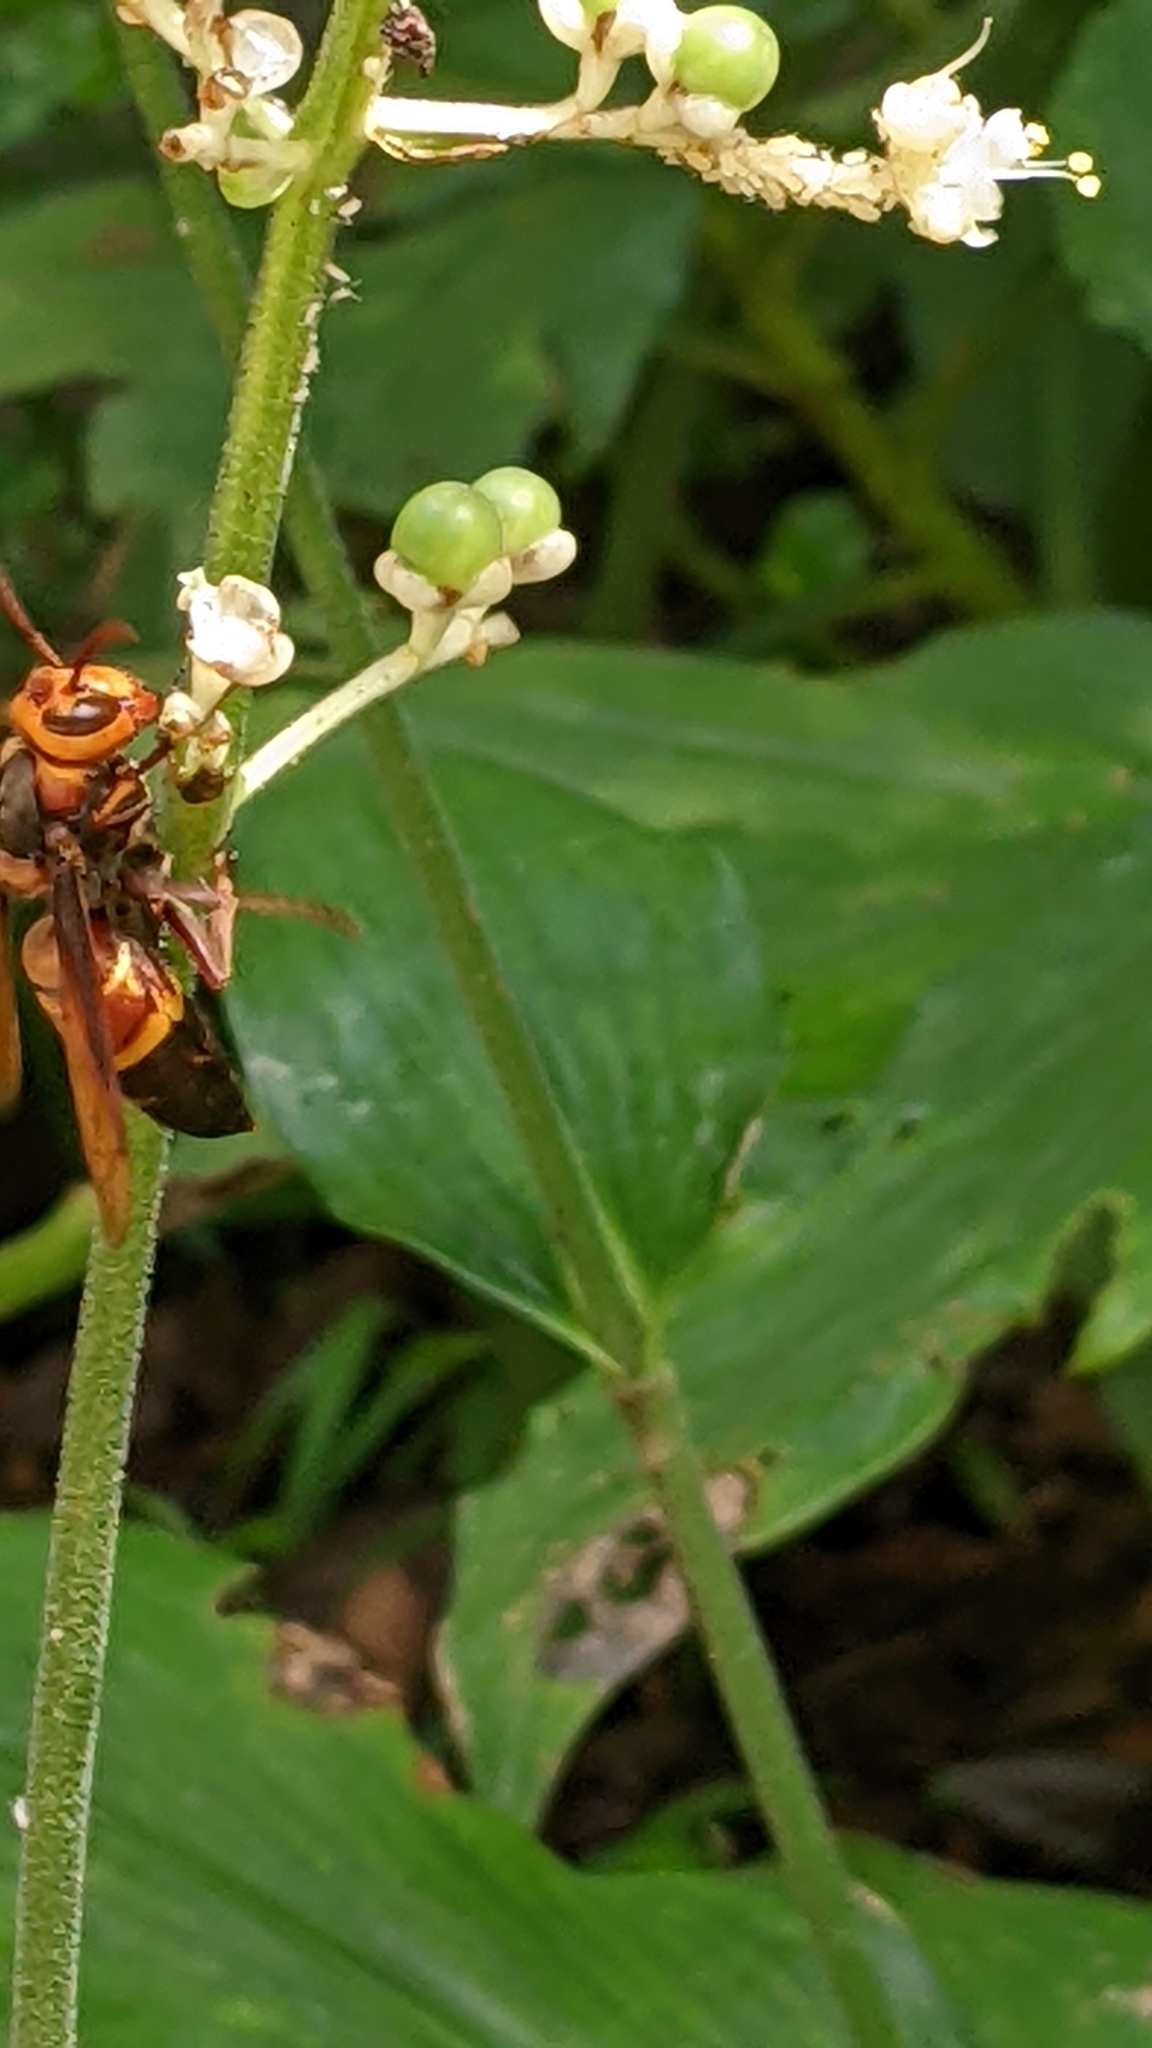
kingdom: Animalia
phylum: Arthropoda
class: Insecta
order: Hymenoptera
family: Vespidae
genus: Vespa
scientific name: Vespa ducalis
